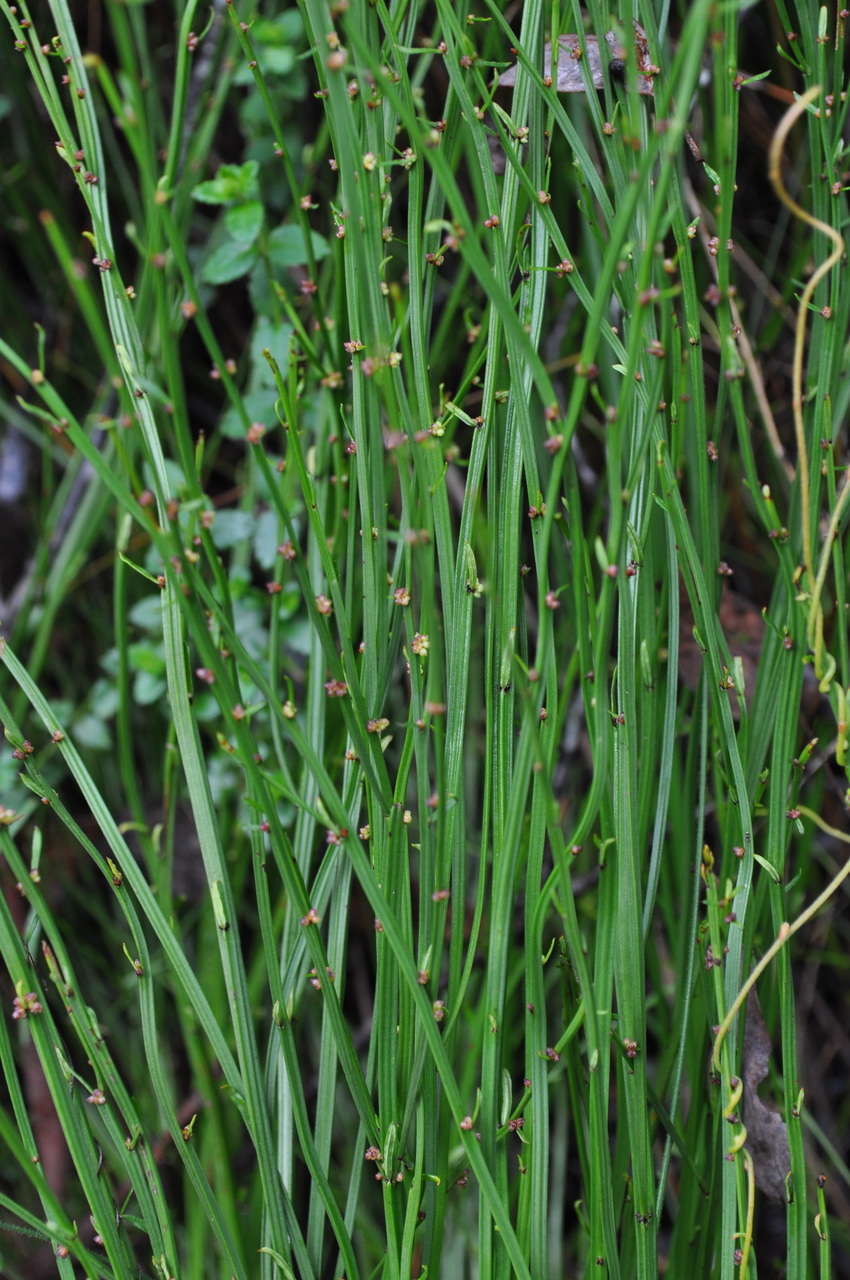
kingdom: Plantae
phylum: Tracheophyta
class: Magnoliopsida
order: Malpighiales
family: Euphorbiaceae
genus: Amperea
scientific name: Amperea xiphoclada
